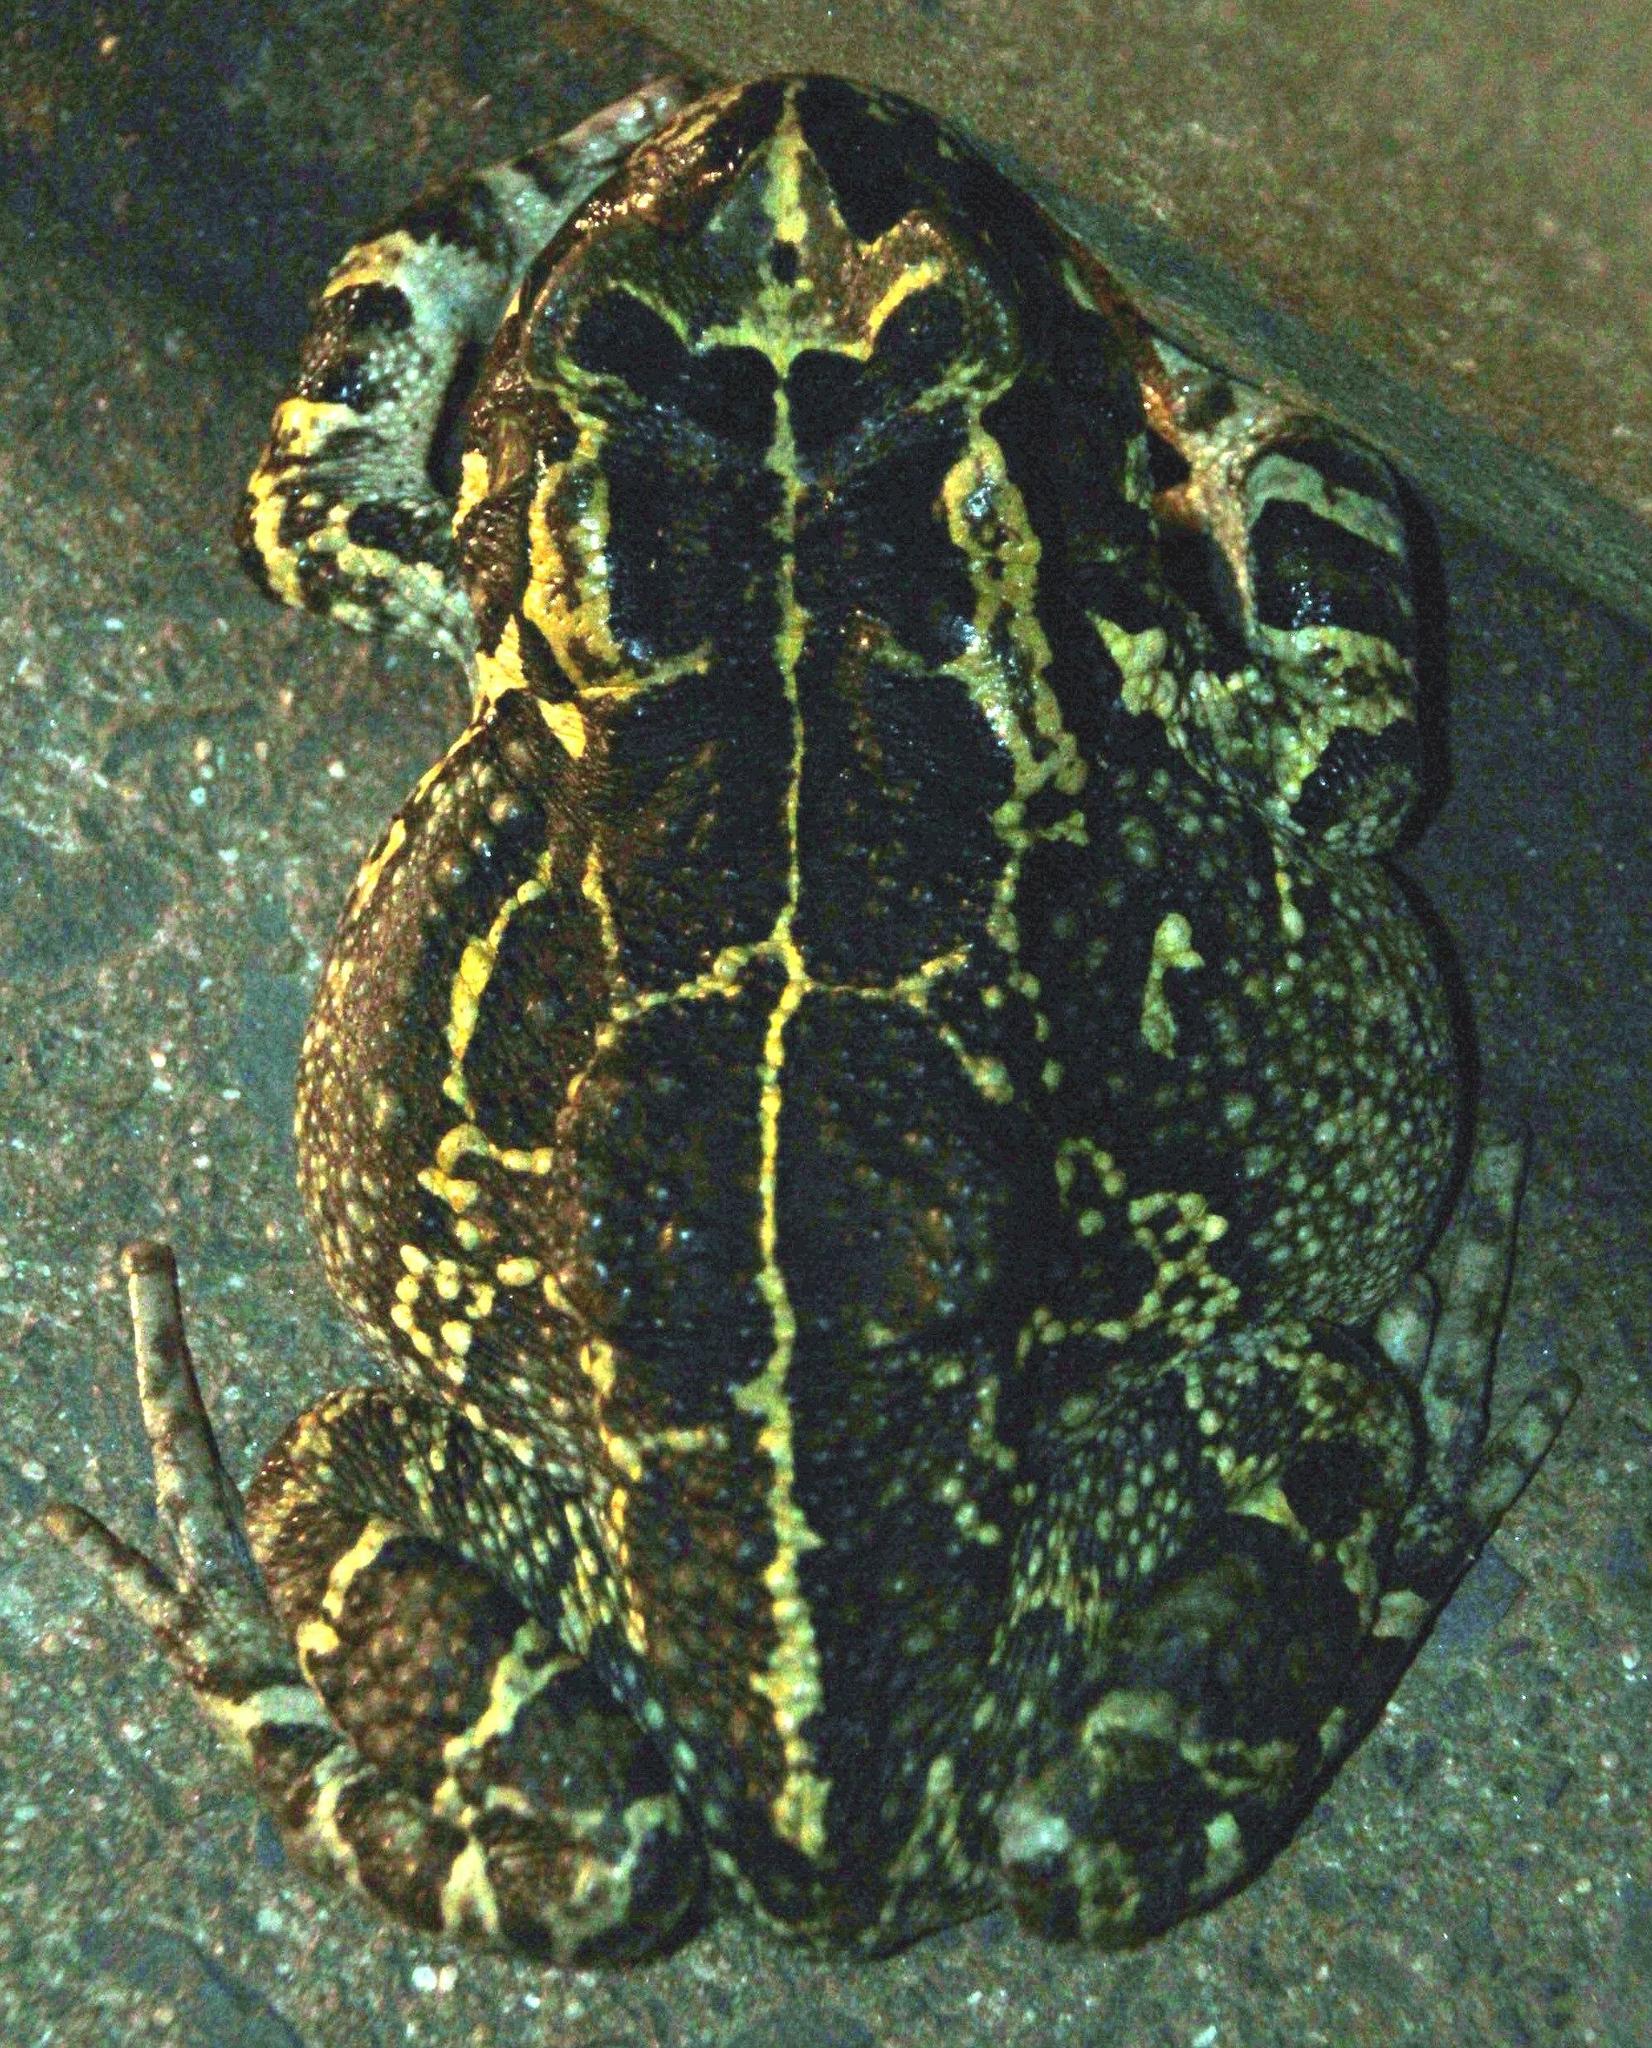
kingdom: Animalia
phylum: Chordata
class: Amphibia
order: Anura
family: Bufonidae
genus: Sclerophrys
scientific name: Sclerophrys pantherina
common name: Panther toad
